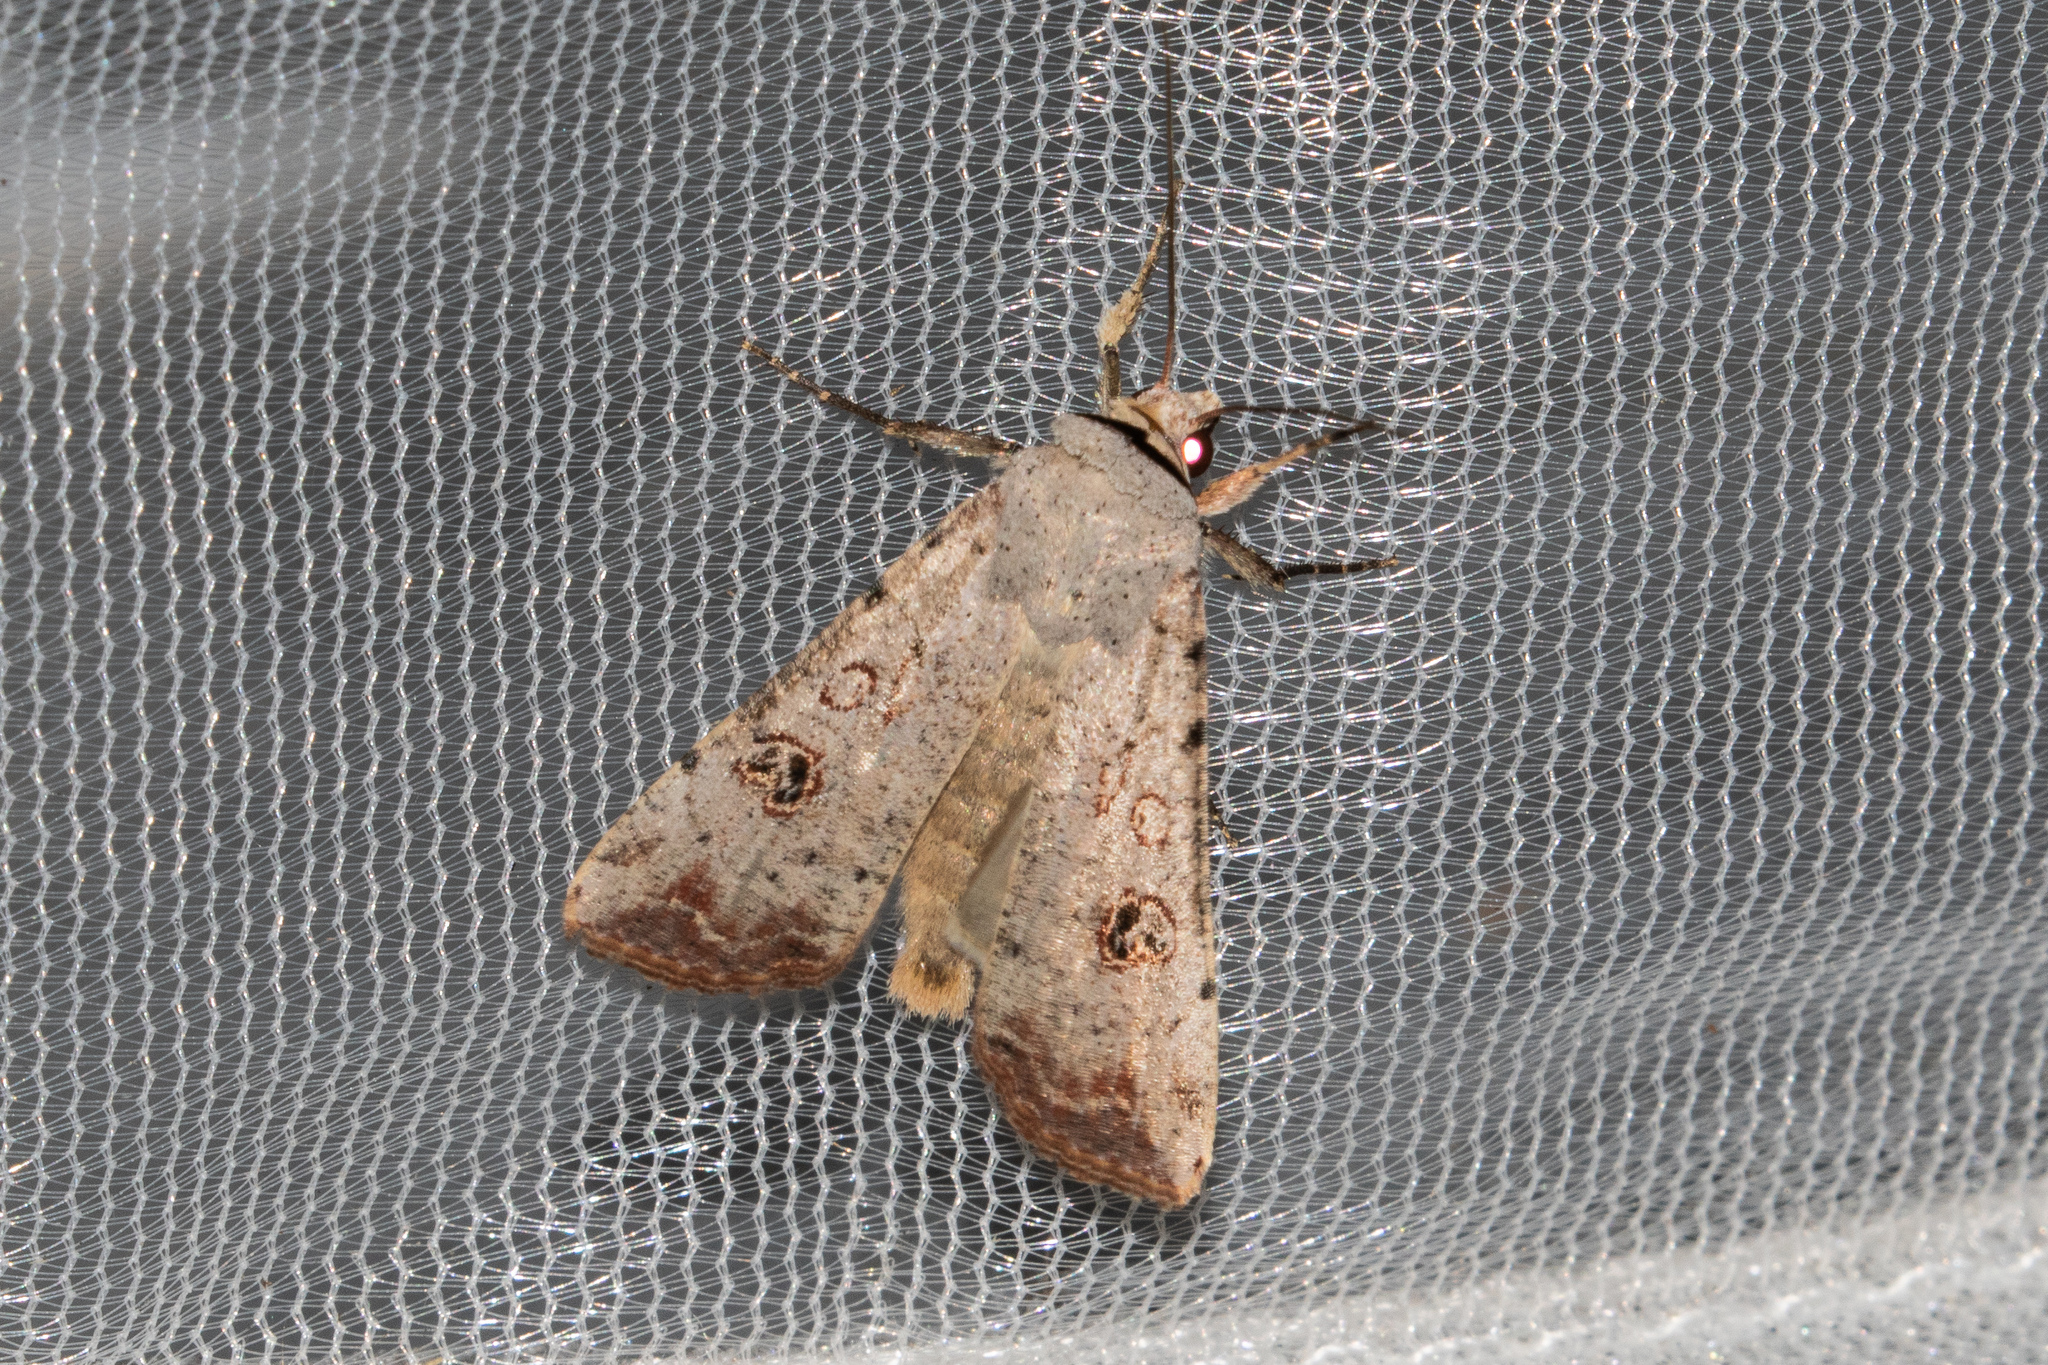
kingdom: Animalia
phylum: Arthropoda
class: Insecta
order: Lepidoptera
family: Noctuidae
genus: Anicla
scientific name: Anicla infecta
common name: Green cutworm
